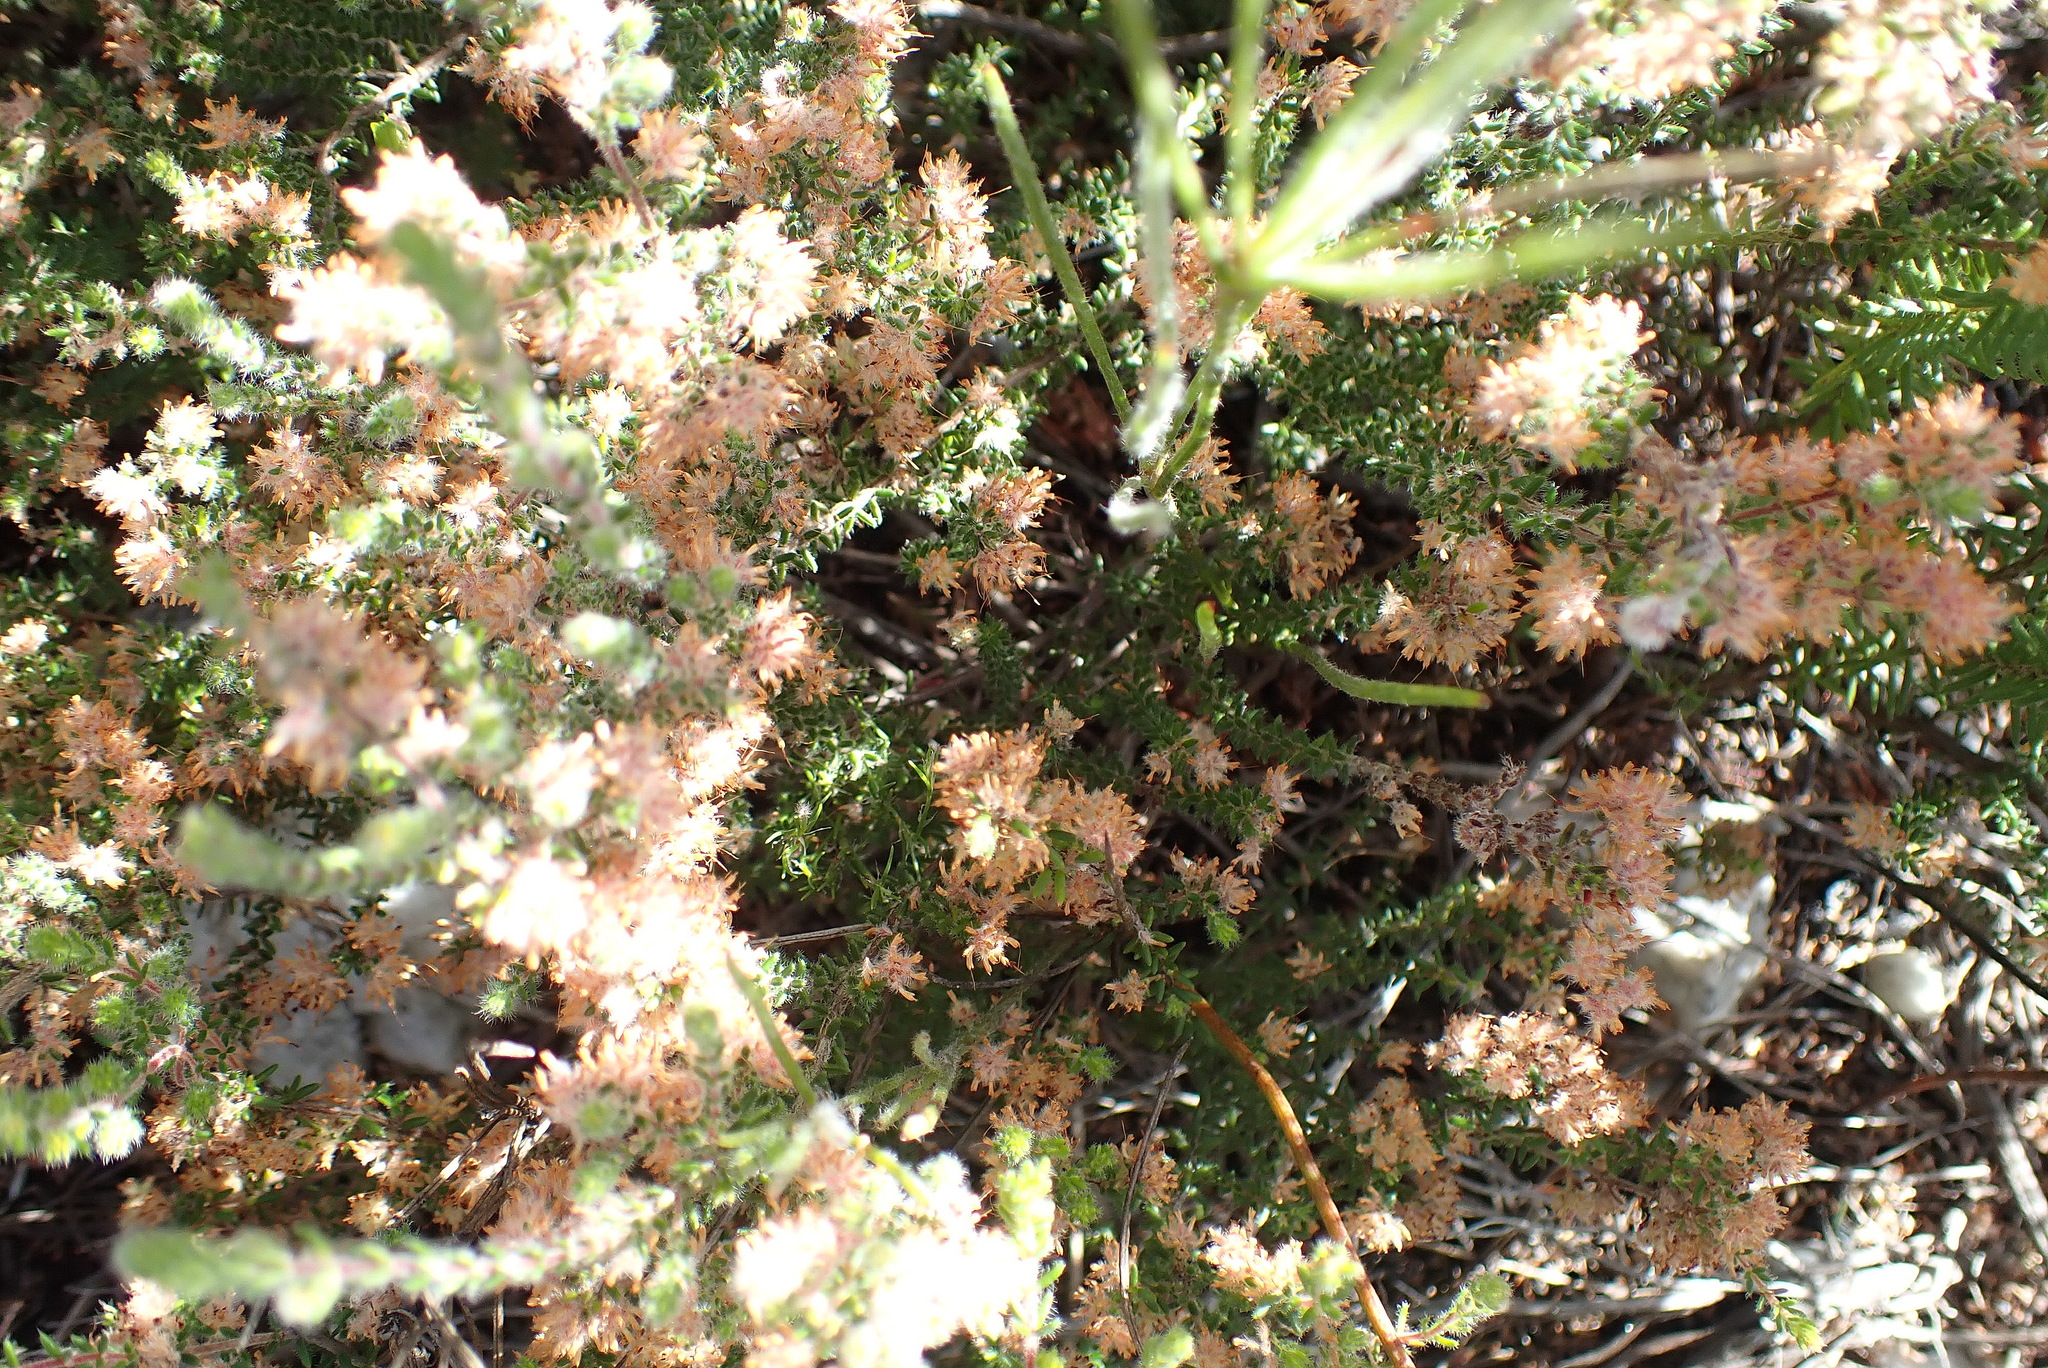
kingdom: Plantae
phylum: Tracheophyta
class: Magnoliopsida
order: Ericales
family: Ericaceae
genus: Erica
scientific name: Erica similis
